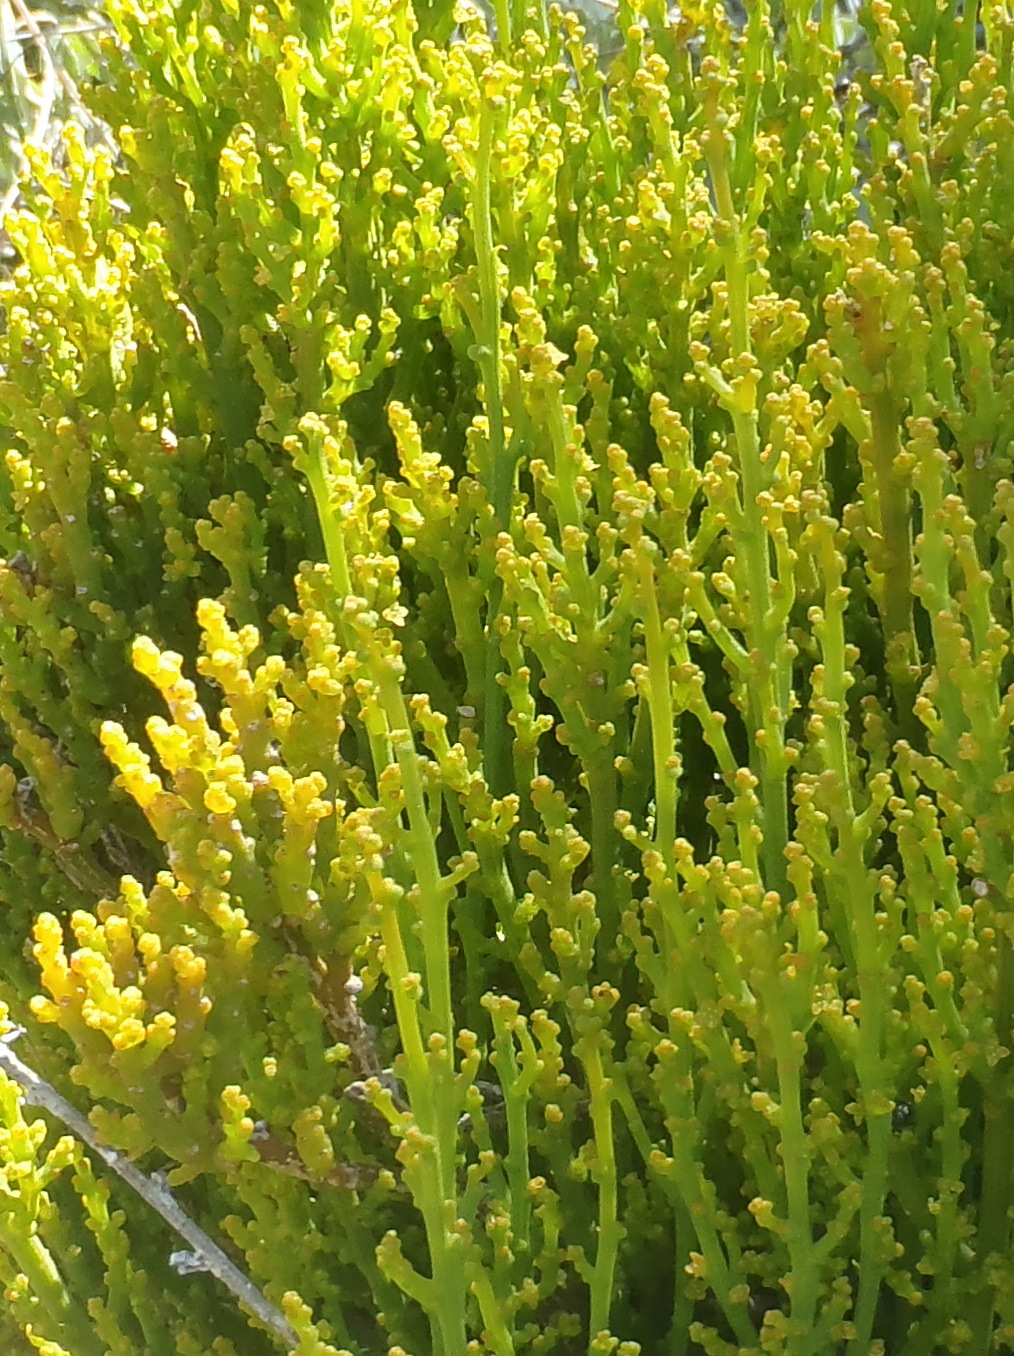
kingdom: Plantae
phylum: Tracheophyta
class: Magnoliopsida
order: Santalales
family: Thesiaceae
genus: Thesium
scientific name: Thesium fragile
